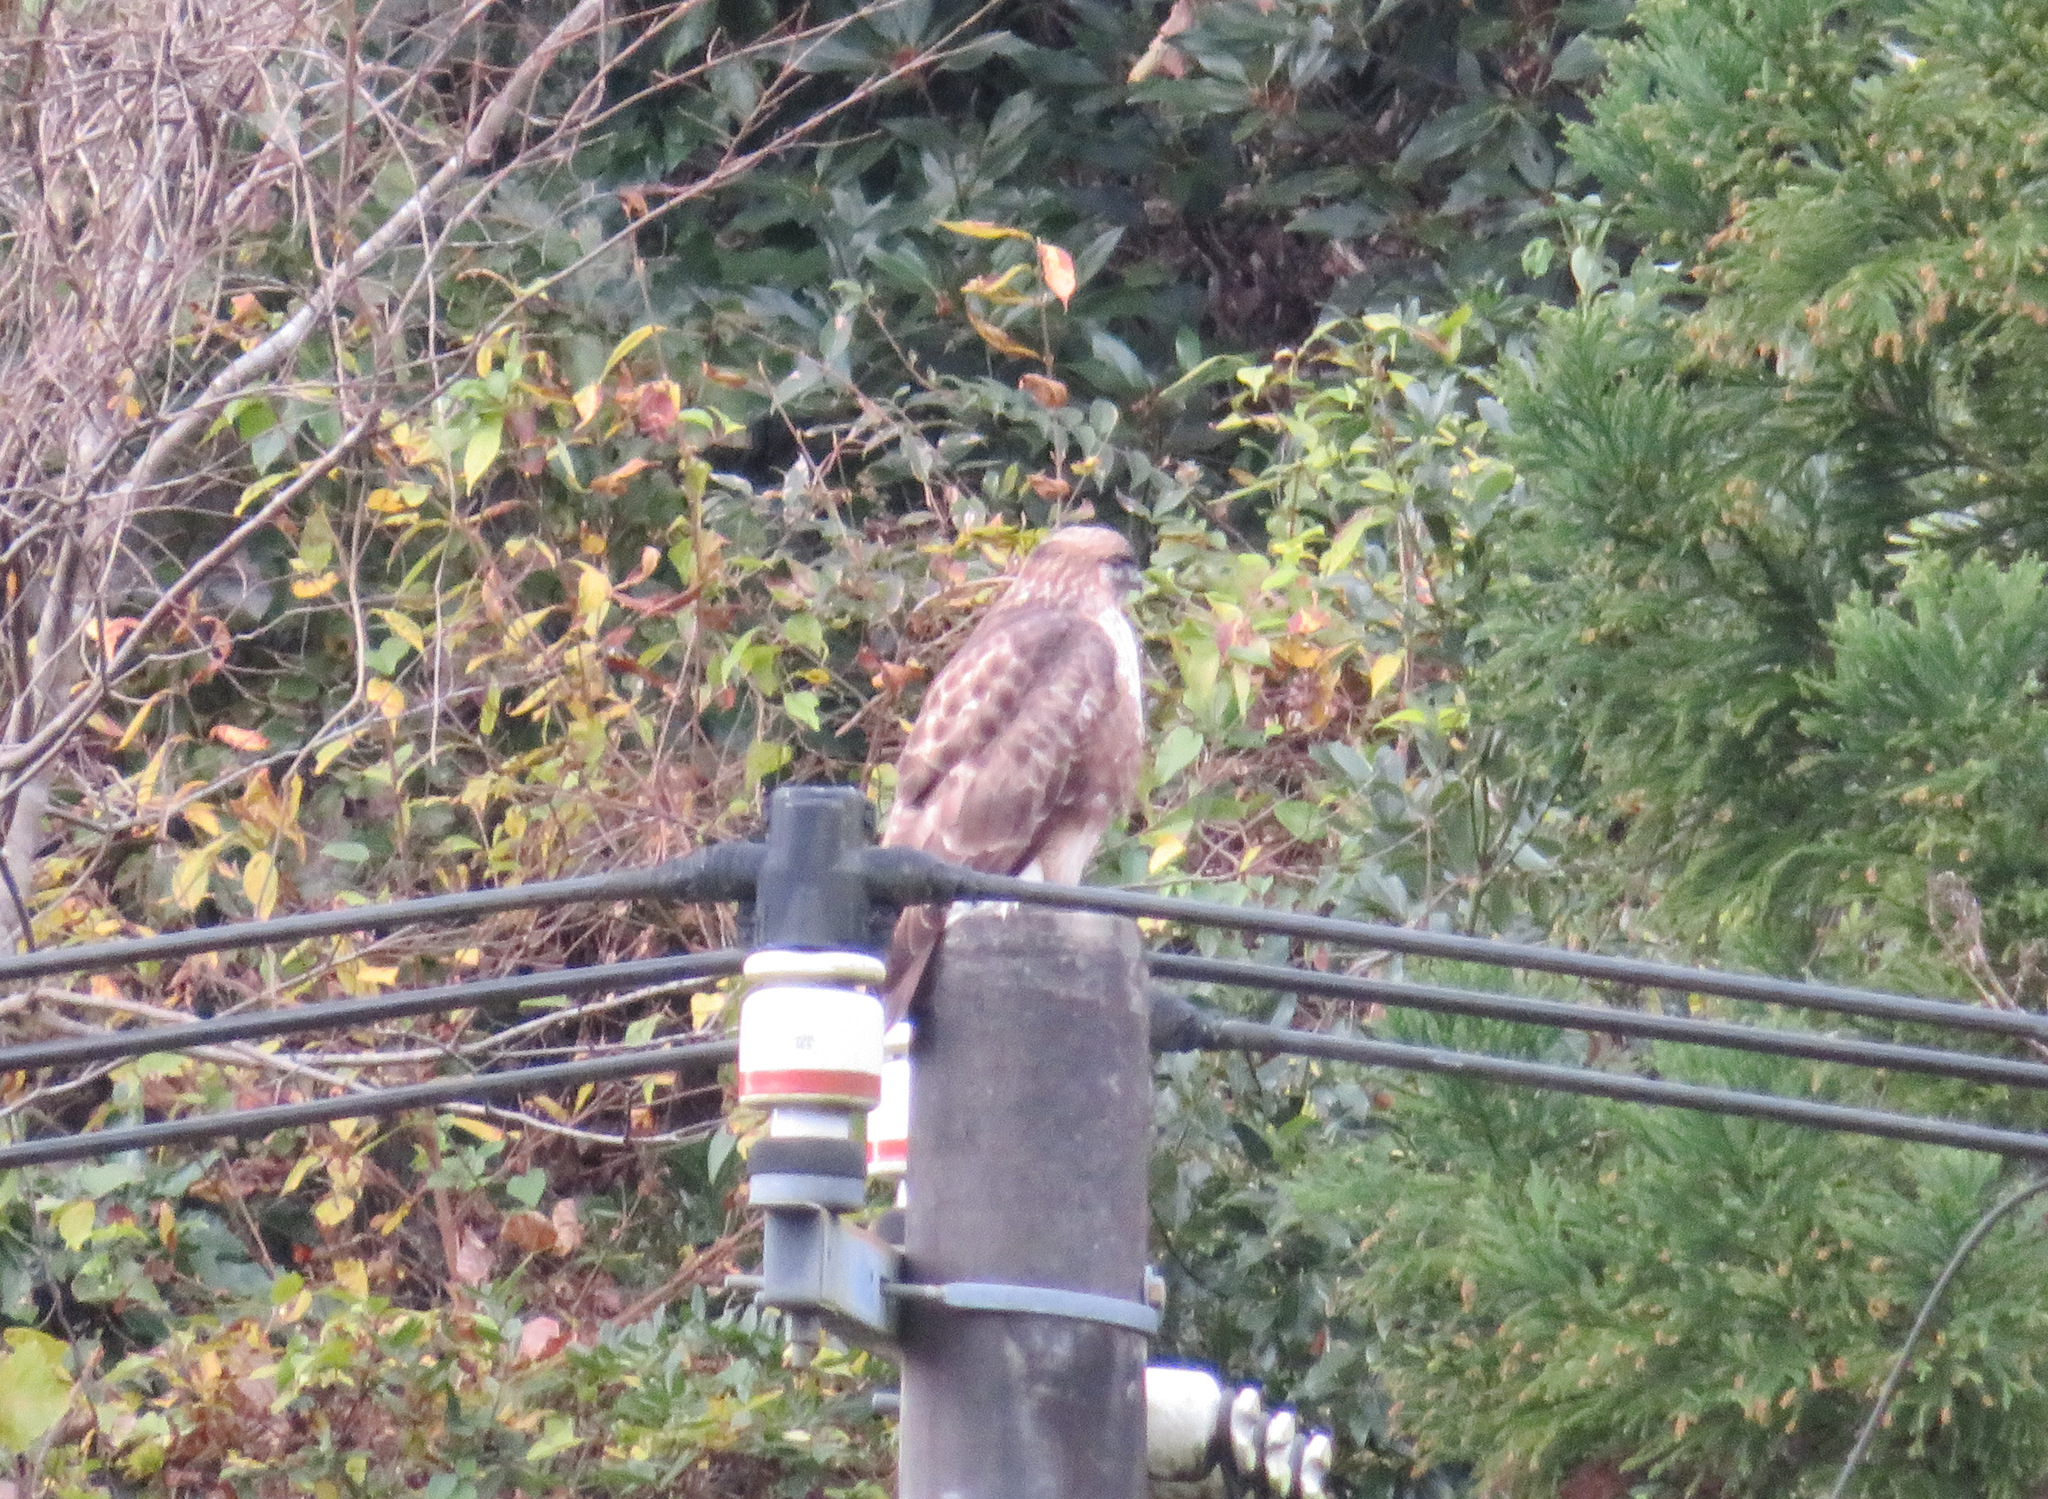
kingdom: Animalia
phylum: Chordata
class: Aves
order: Accipitriformes
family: Accipitridae
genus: Buteo
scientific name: Buteo japonicus
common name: Eastern buzzard
